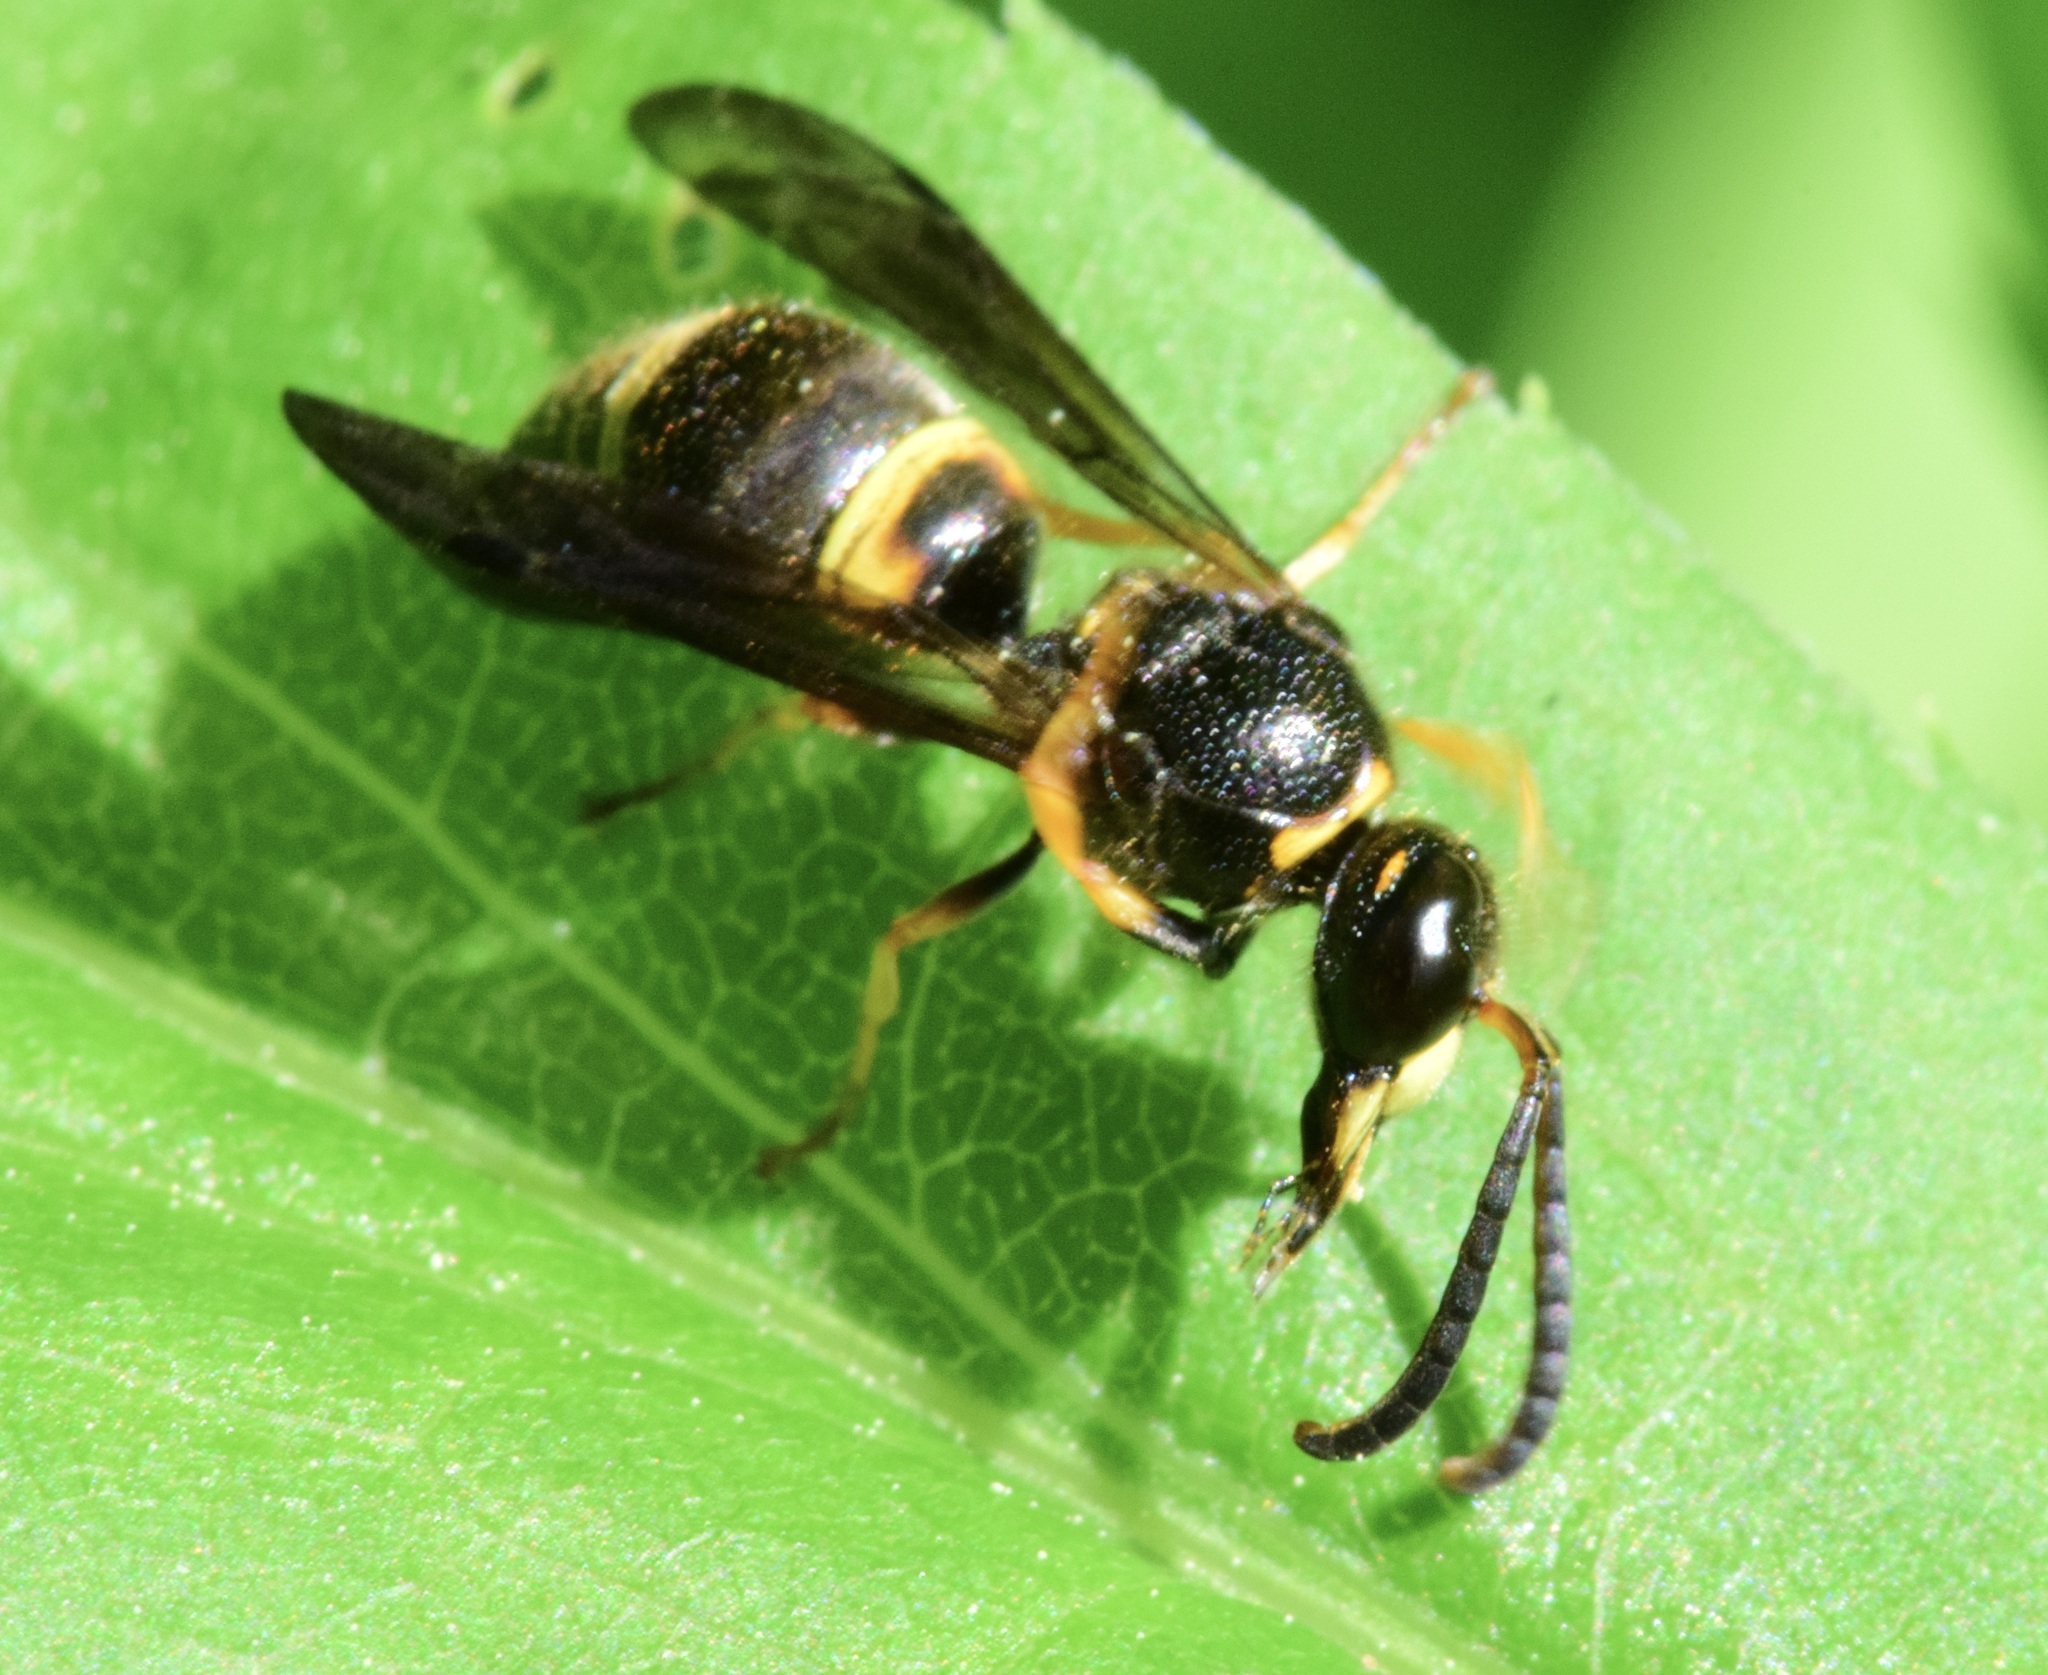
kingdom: Animalia
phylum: Arthropoda
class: Insecta
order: Hymenoptera
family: Vespidae
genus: Ancistrocerus
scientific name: Ancistrocerus unifasciatus
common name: One-banded mason wasp
